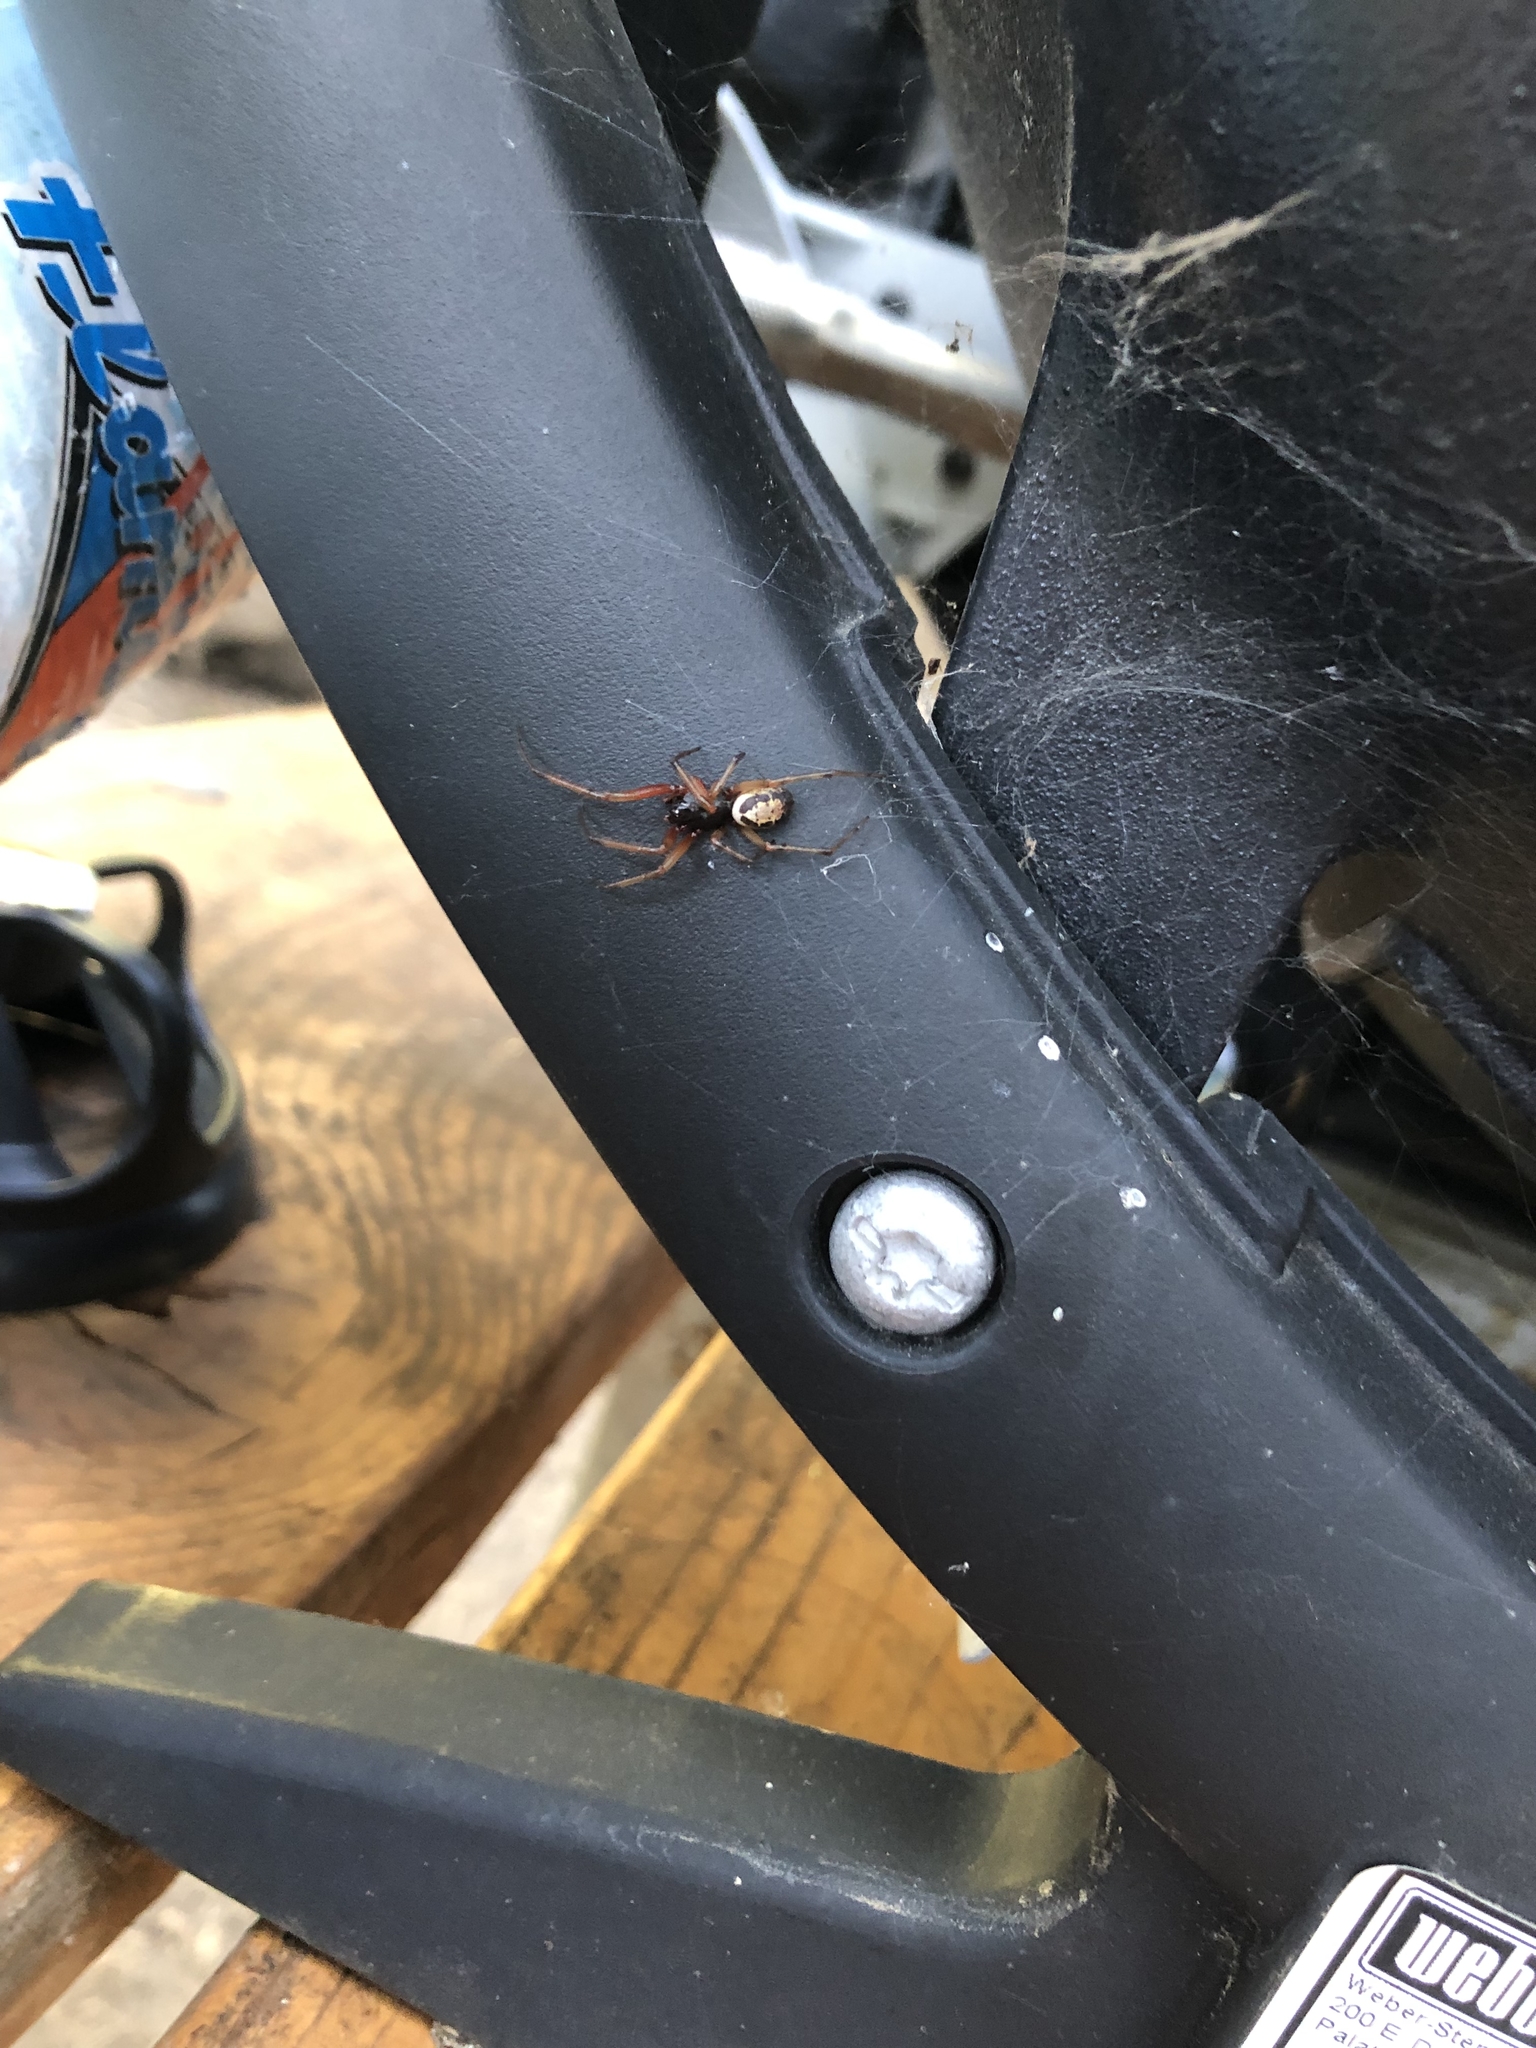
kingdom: Animalia
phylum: Arthropoda
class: Arachnida
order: Araneae
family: Theridiidae
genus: Steatoda
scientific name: Steatoda nobilis
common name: Cobweb weaver
